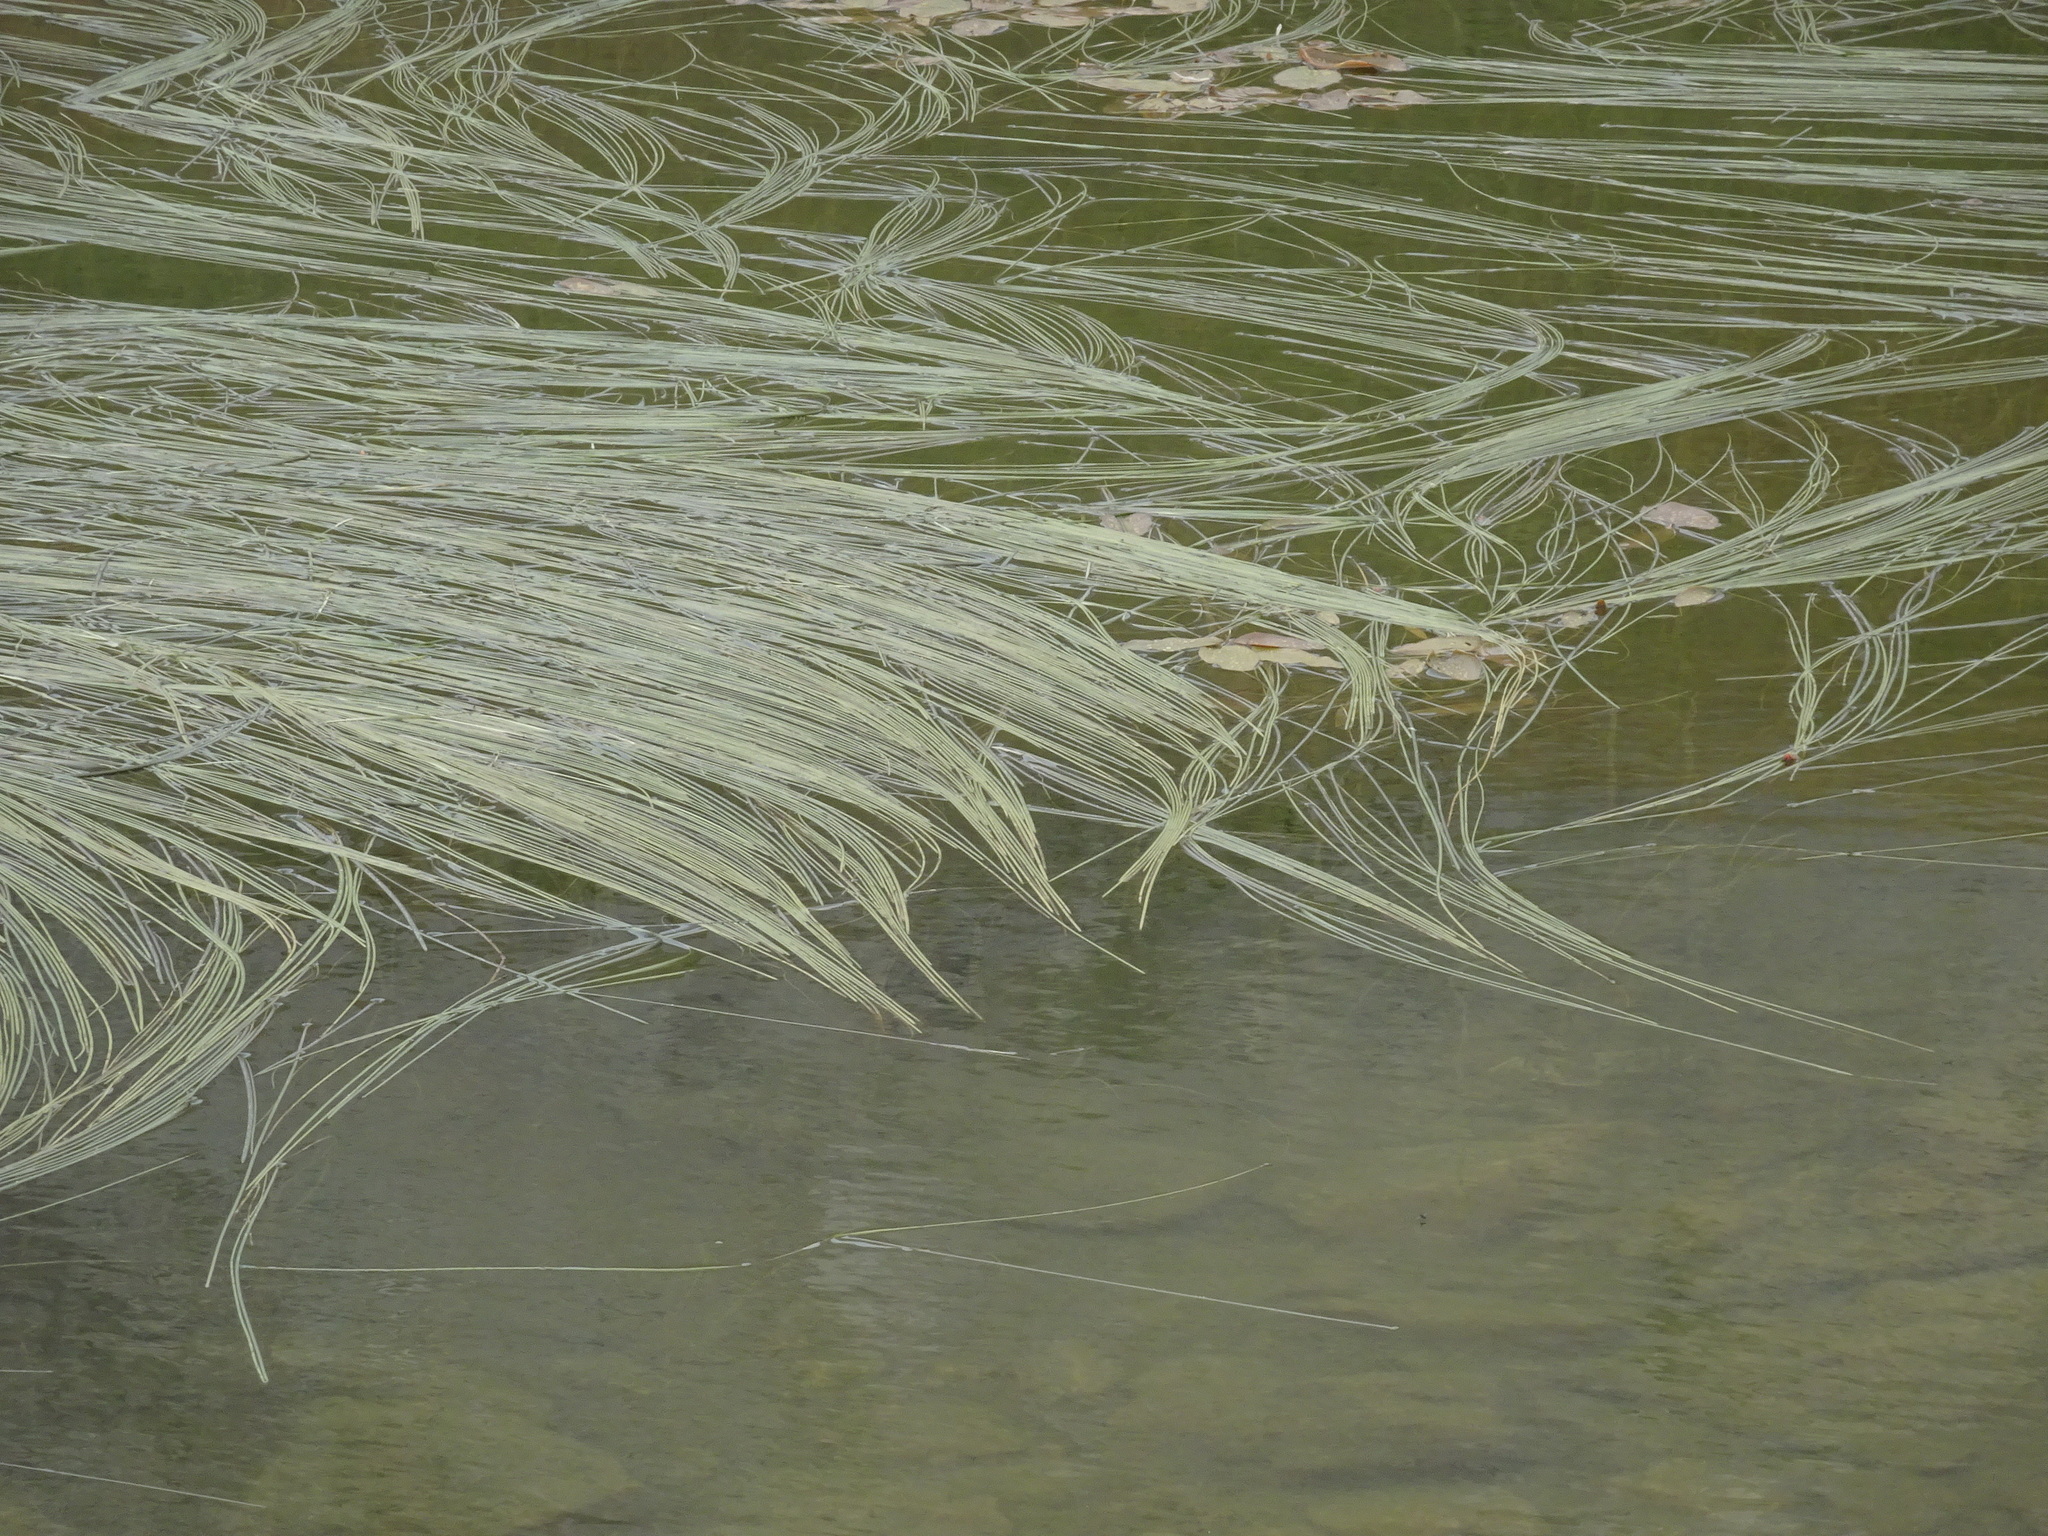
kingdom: Plantae
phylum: Tracheophyta
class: Liliopsida
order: Poales
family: Typhaceae
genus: Sparganium
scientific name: Sparganium angustifolium
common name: Floating bur-reed
